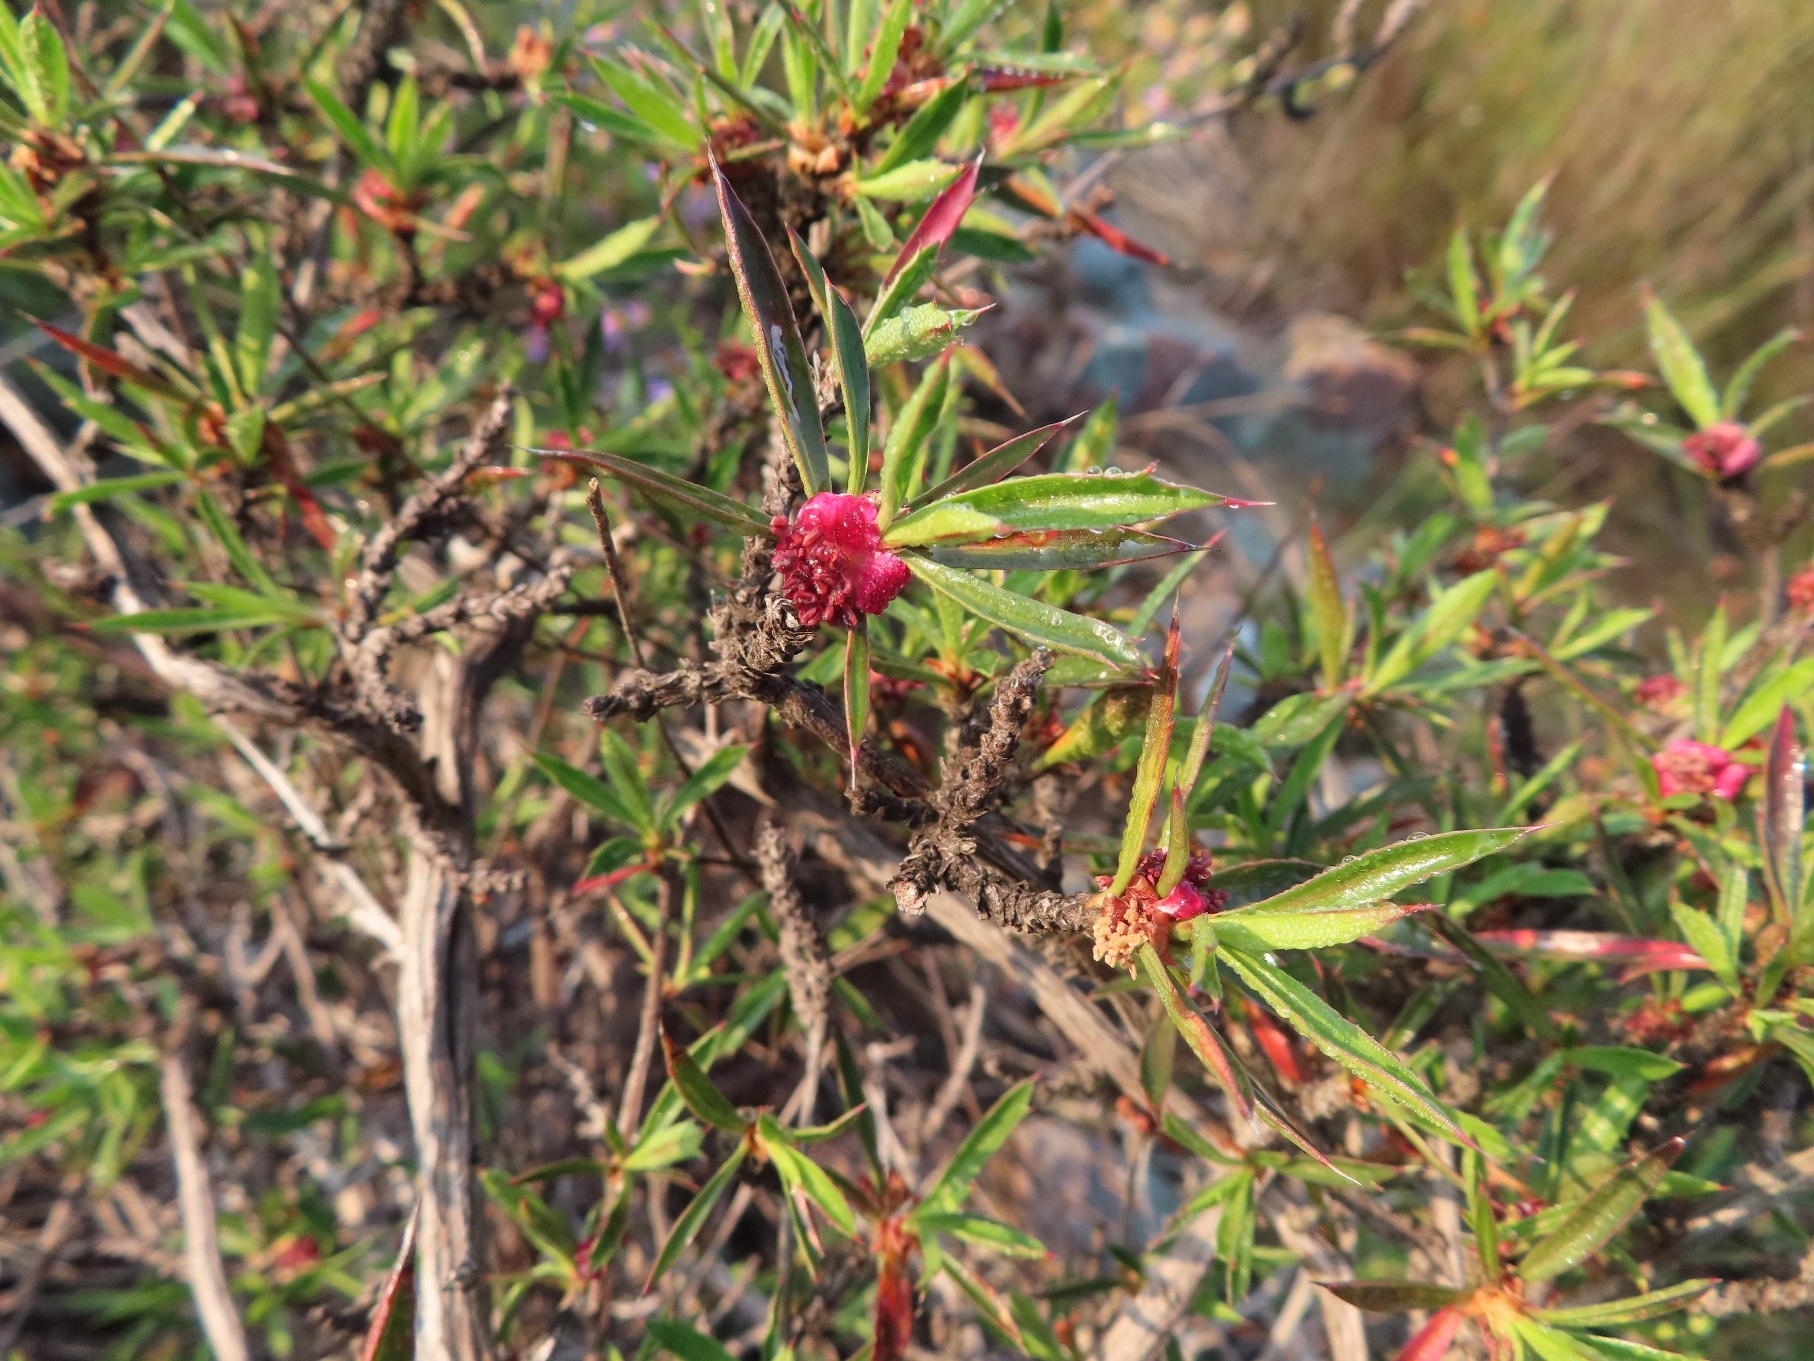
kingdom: Plantae
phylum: Tracheophyta
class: Magnoliopsida
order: Rosales
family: Rosaceae
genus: Cliffortia
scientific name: Cliffortia acutifolia
